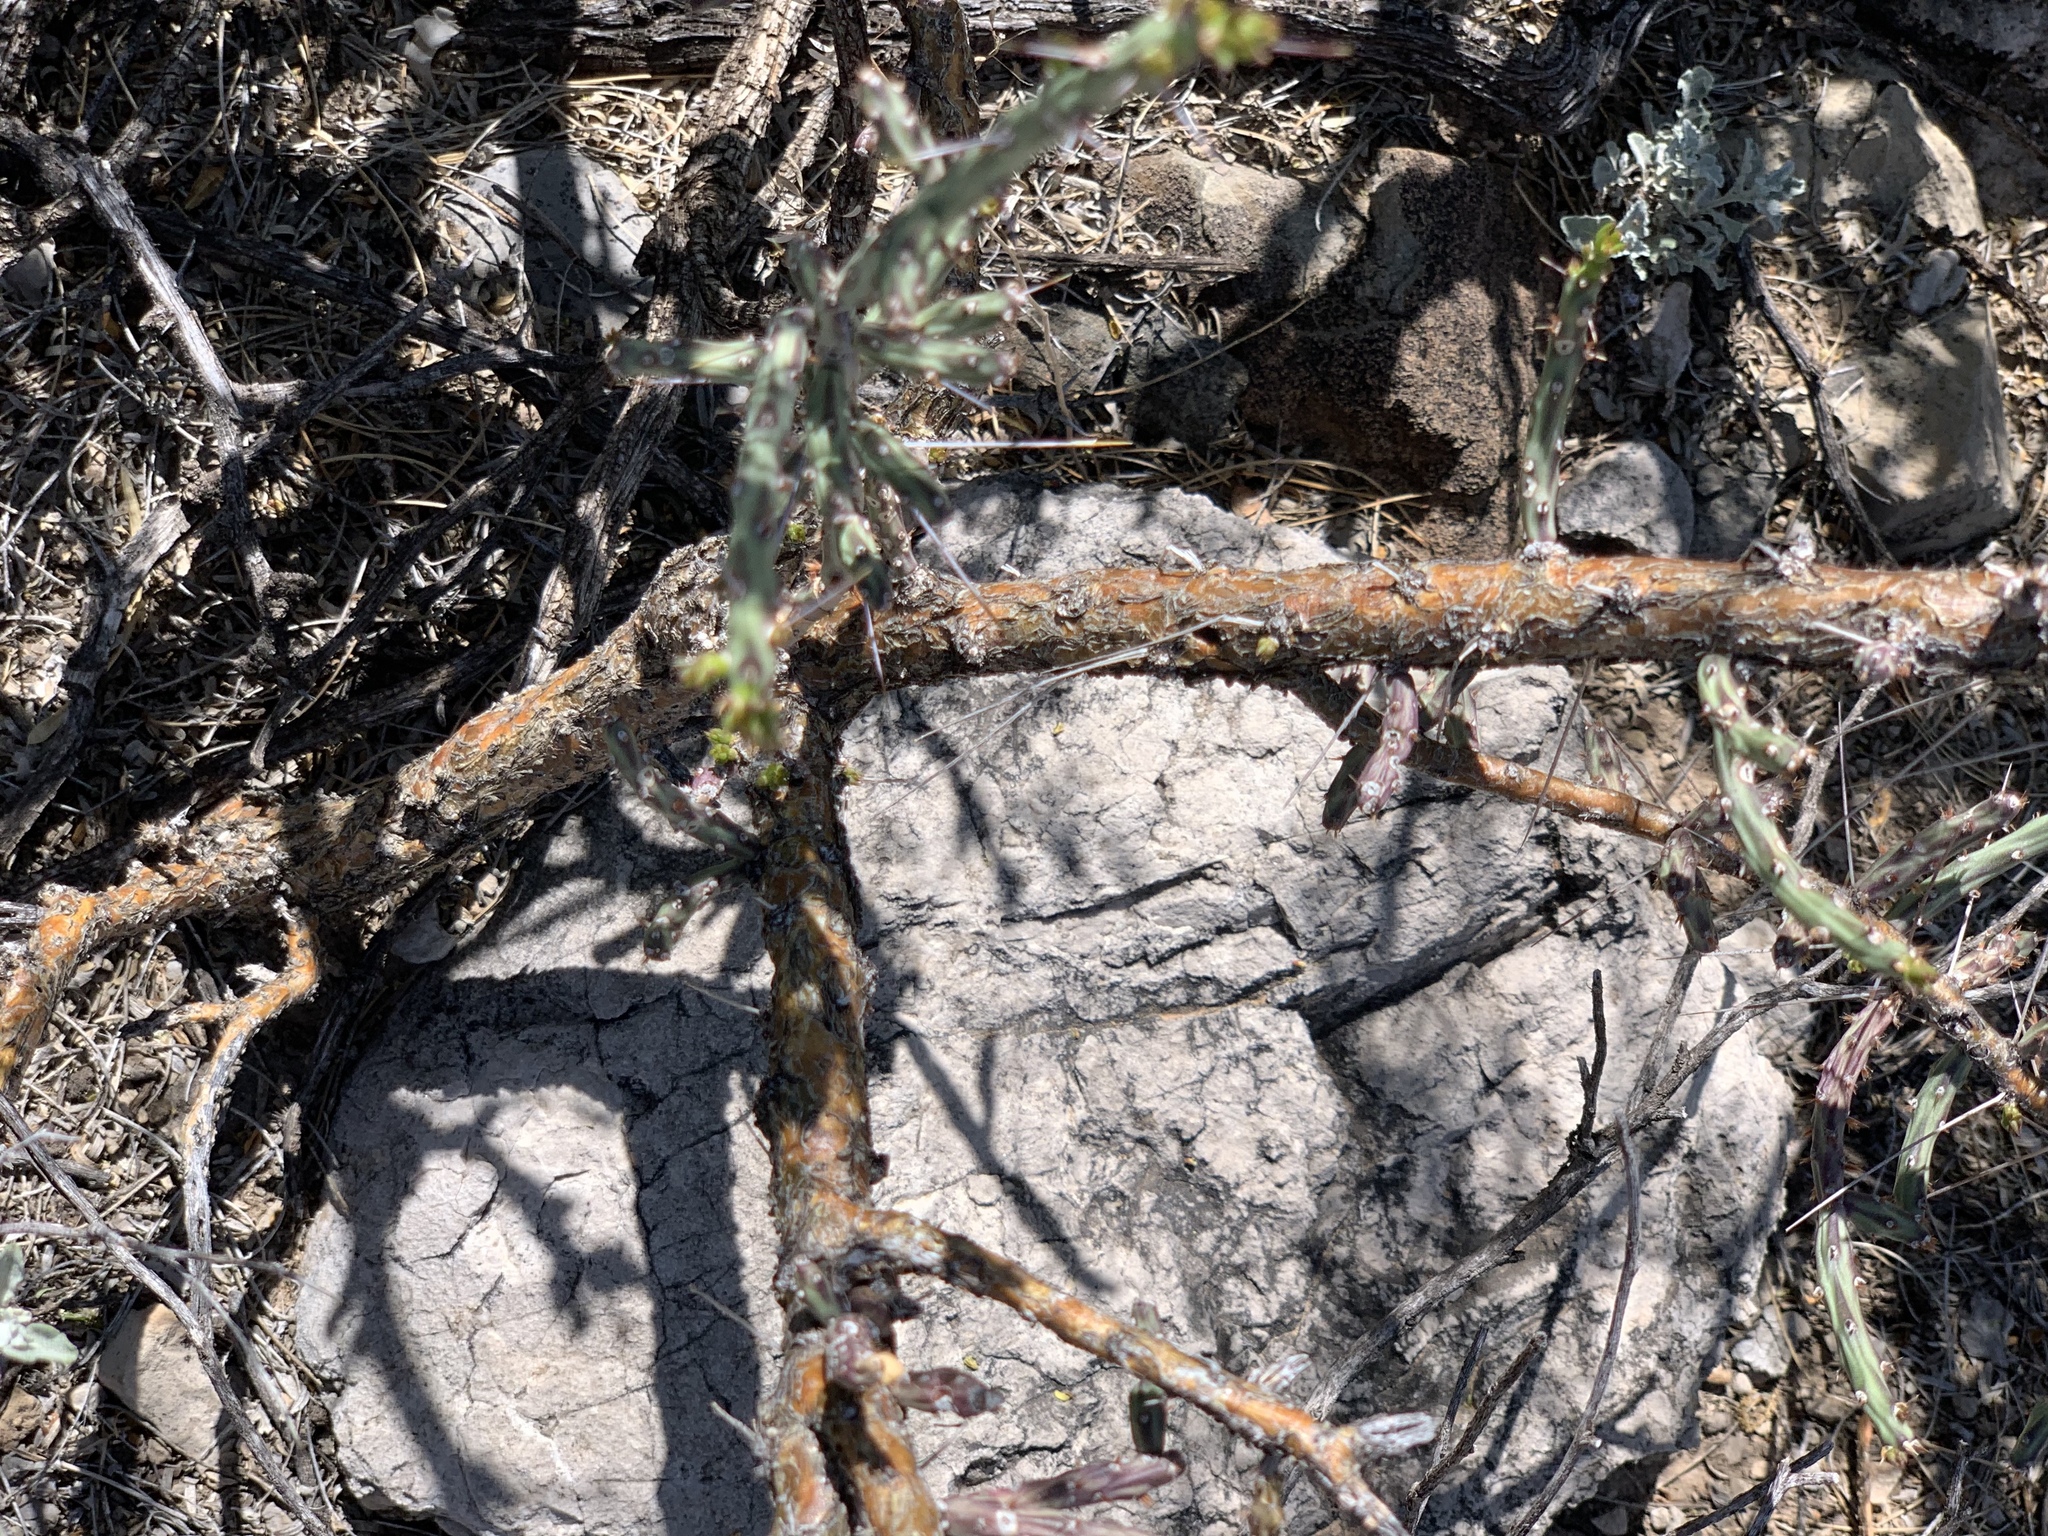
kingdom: Plantae
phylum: Tracheophyta
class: Magnoliopsida
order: Caryophyllales
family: Cactaceae
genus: Cylindropuntia
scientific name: Cylindropuntia leptocaulis
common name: Christmas cactus
